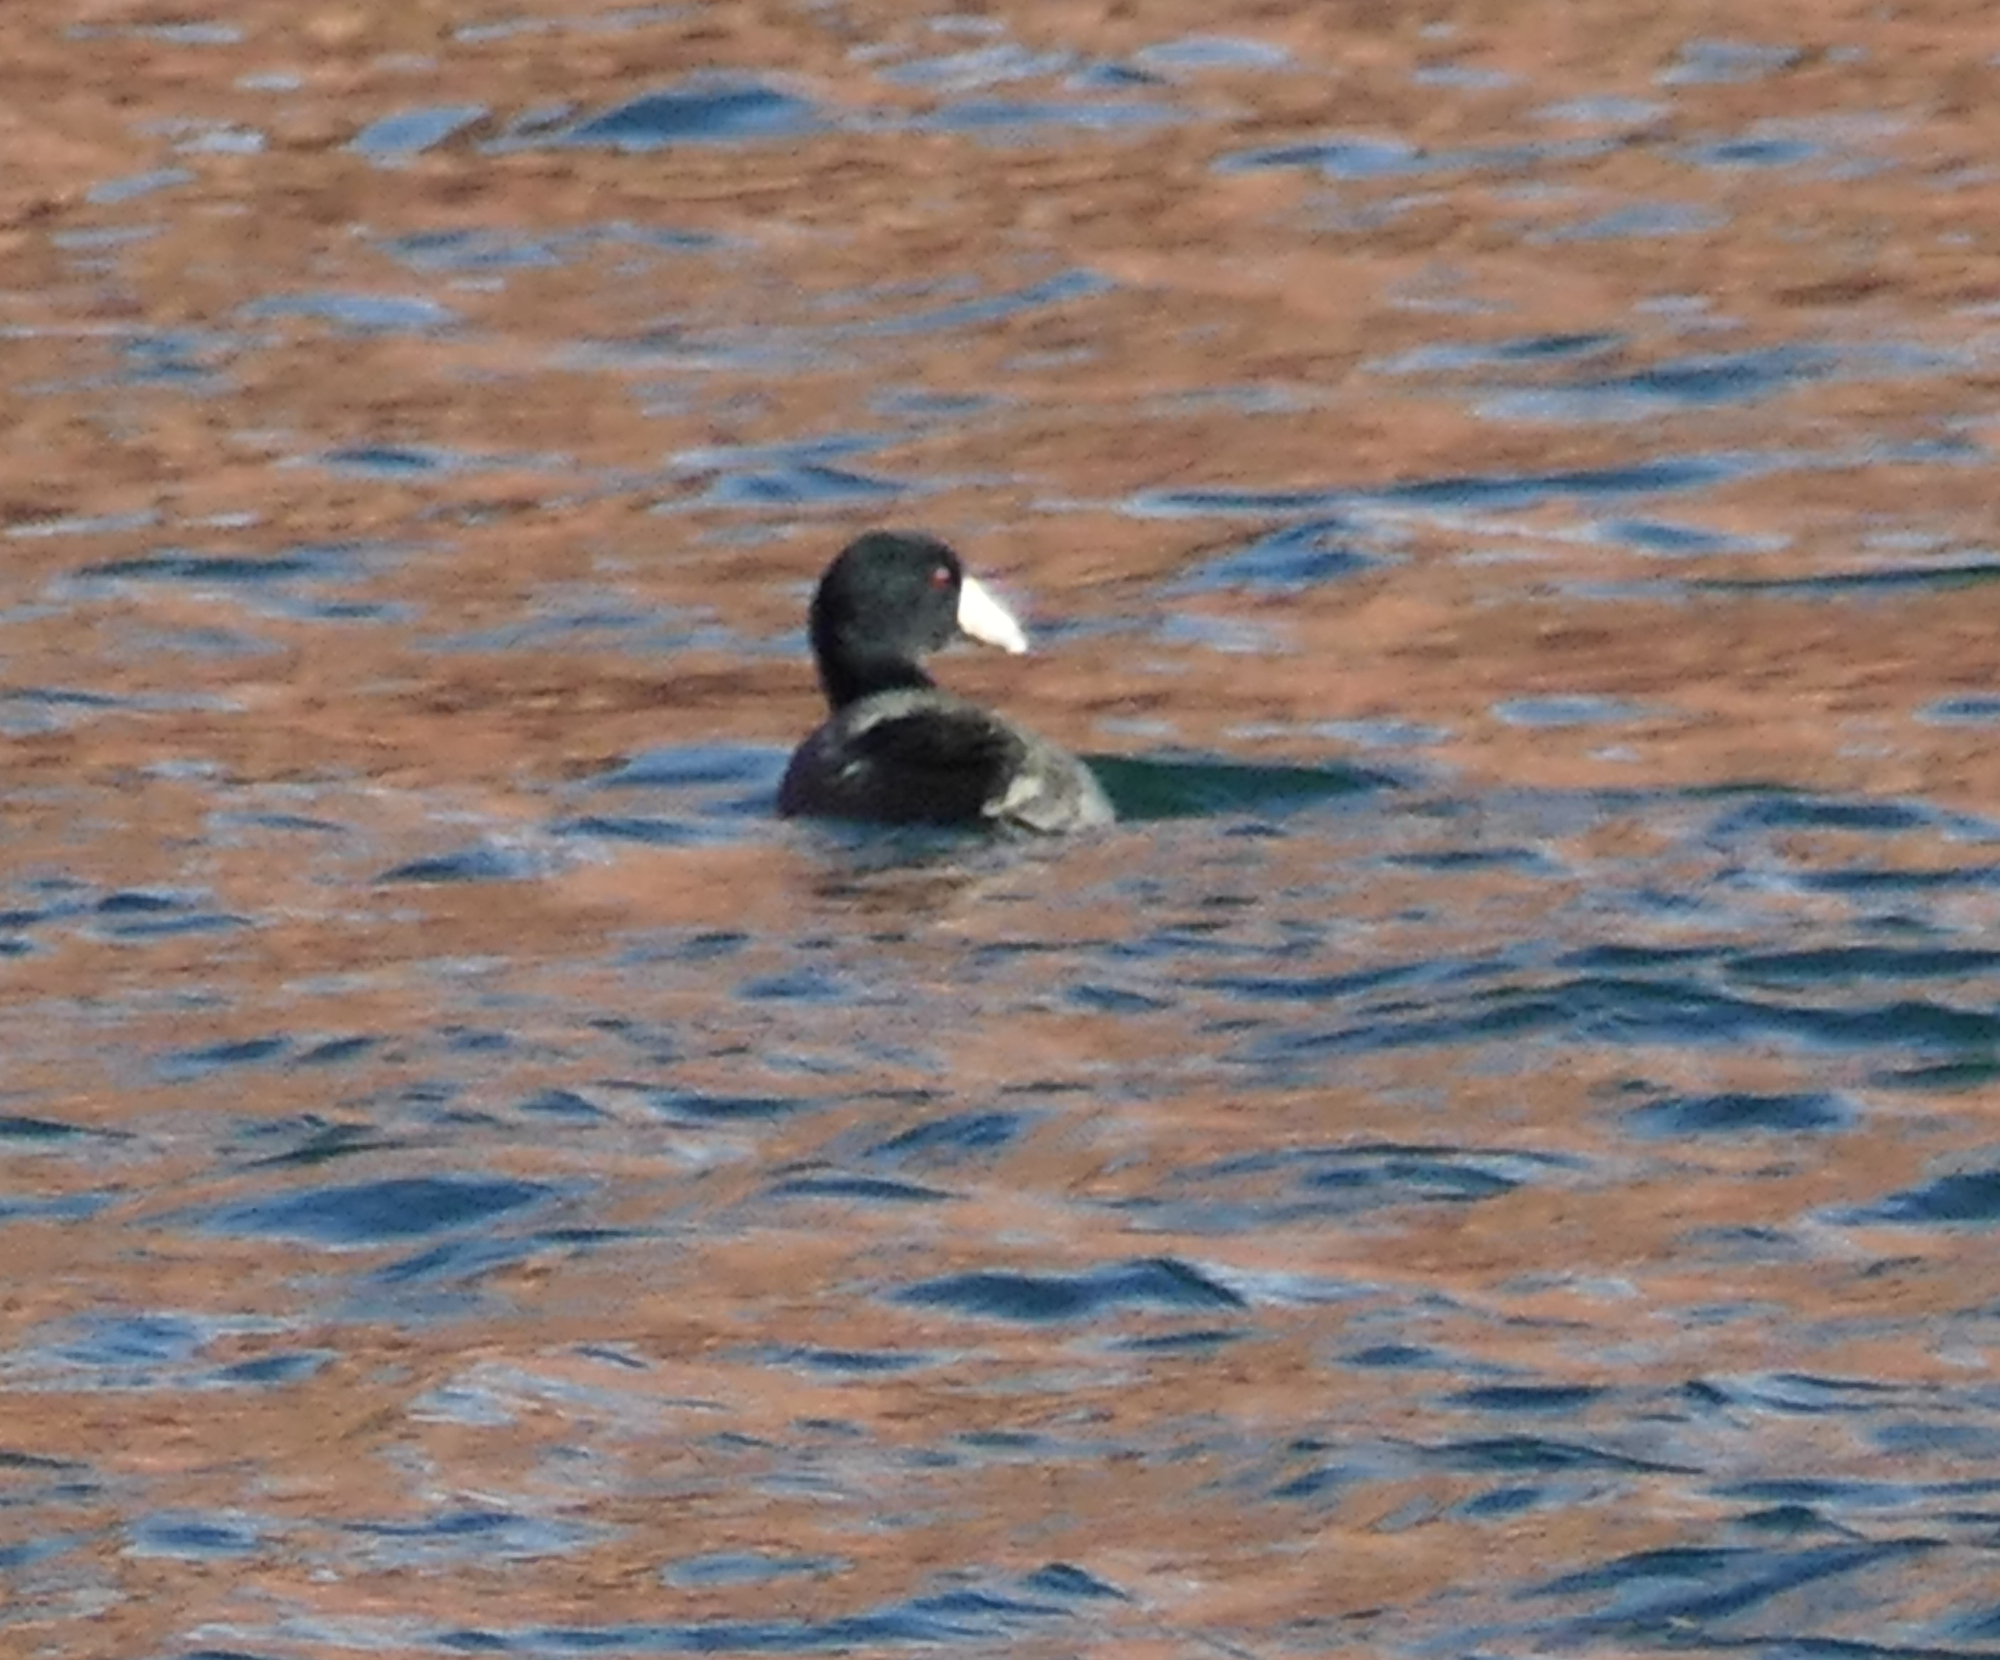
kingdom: Animalia
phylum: Chordata
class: Aves
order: Gruiformes
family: Rallidae
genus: Fulica
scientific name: Fulica americana
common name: American coot
